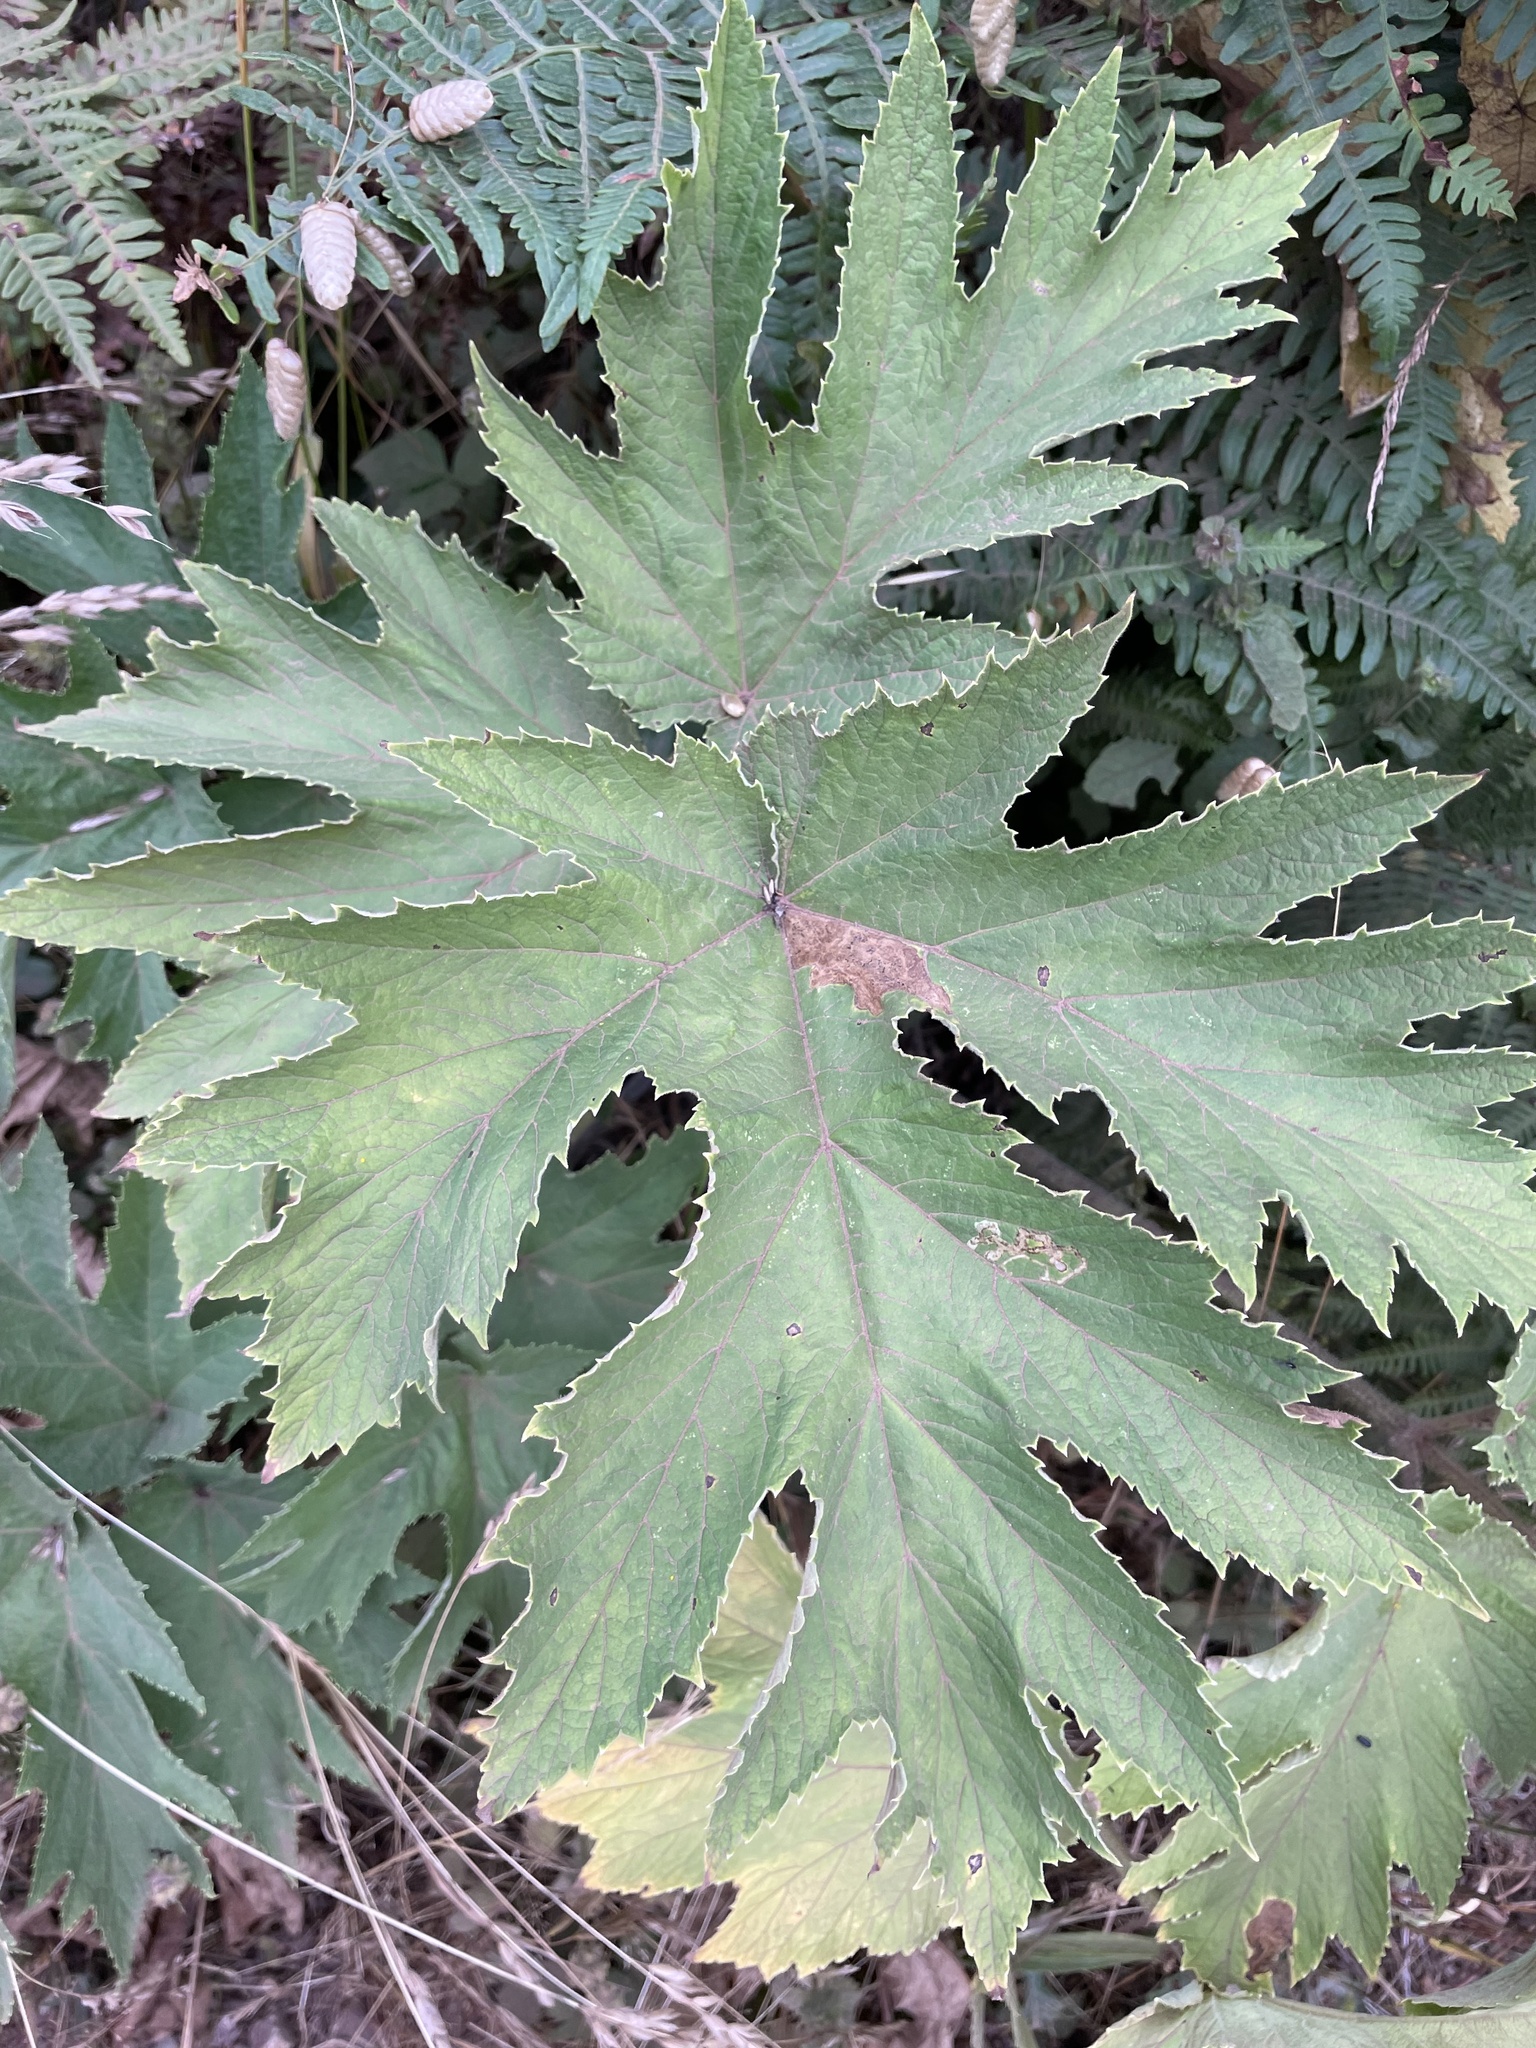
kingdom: Plantae
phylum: Tracheophyta
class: Magnoliopsida
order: Apiales
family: Apiaceae
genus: Heracleum
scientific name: Heracleum maximum
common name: American cow parsnip
